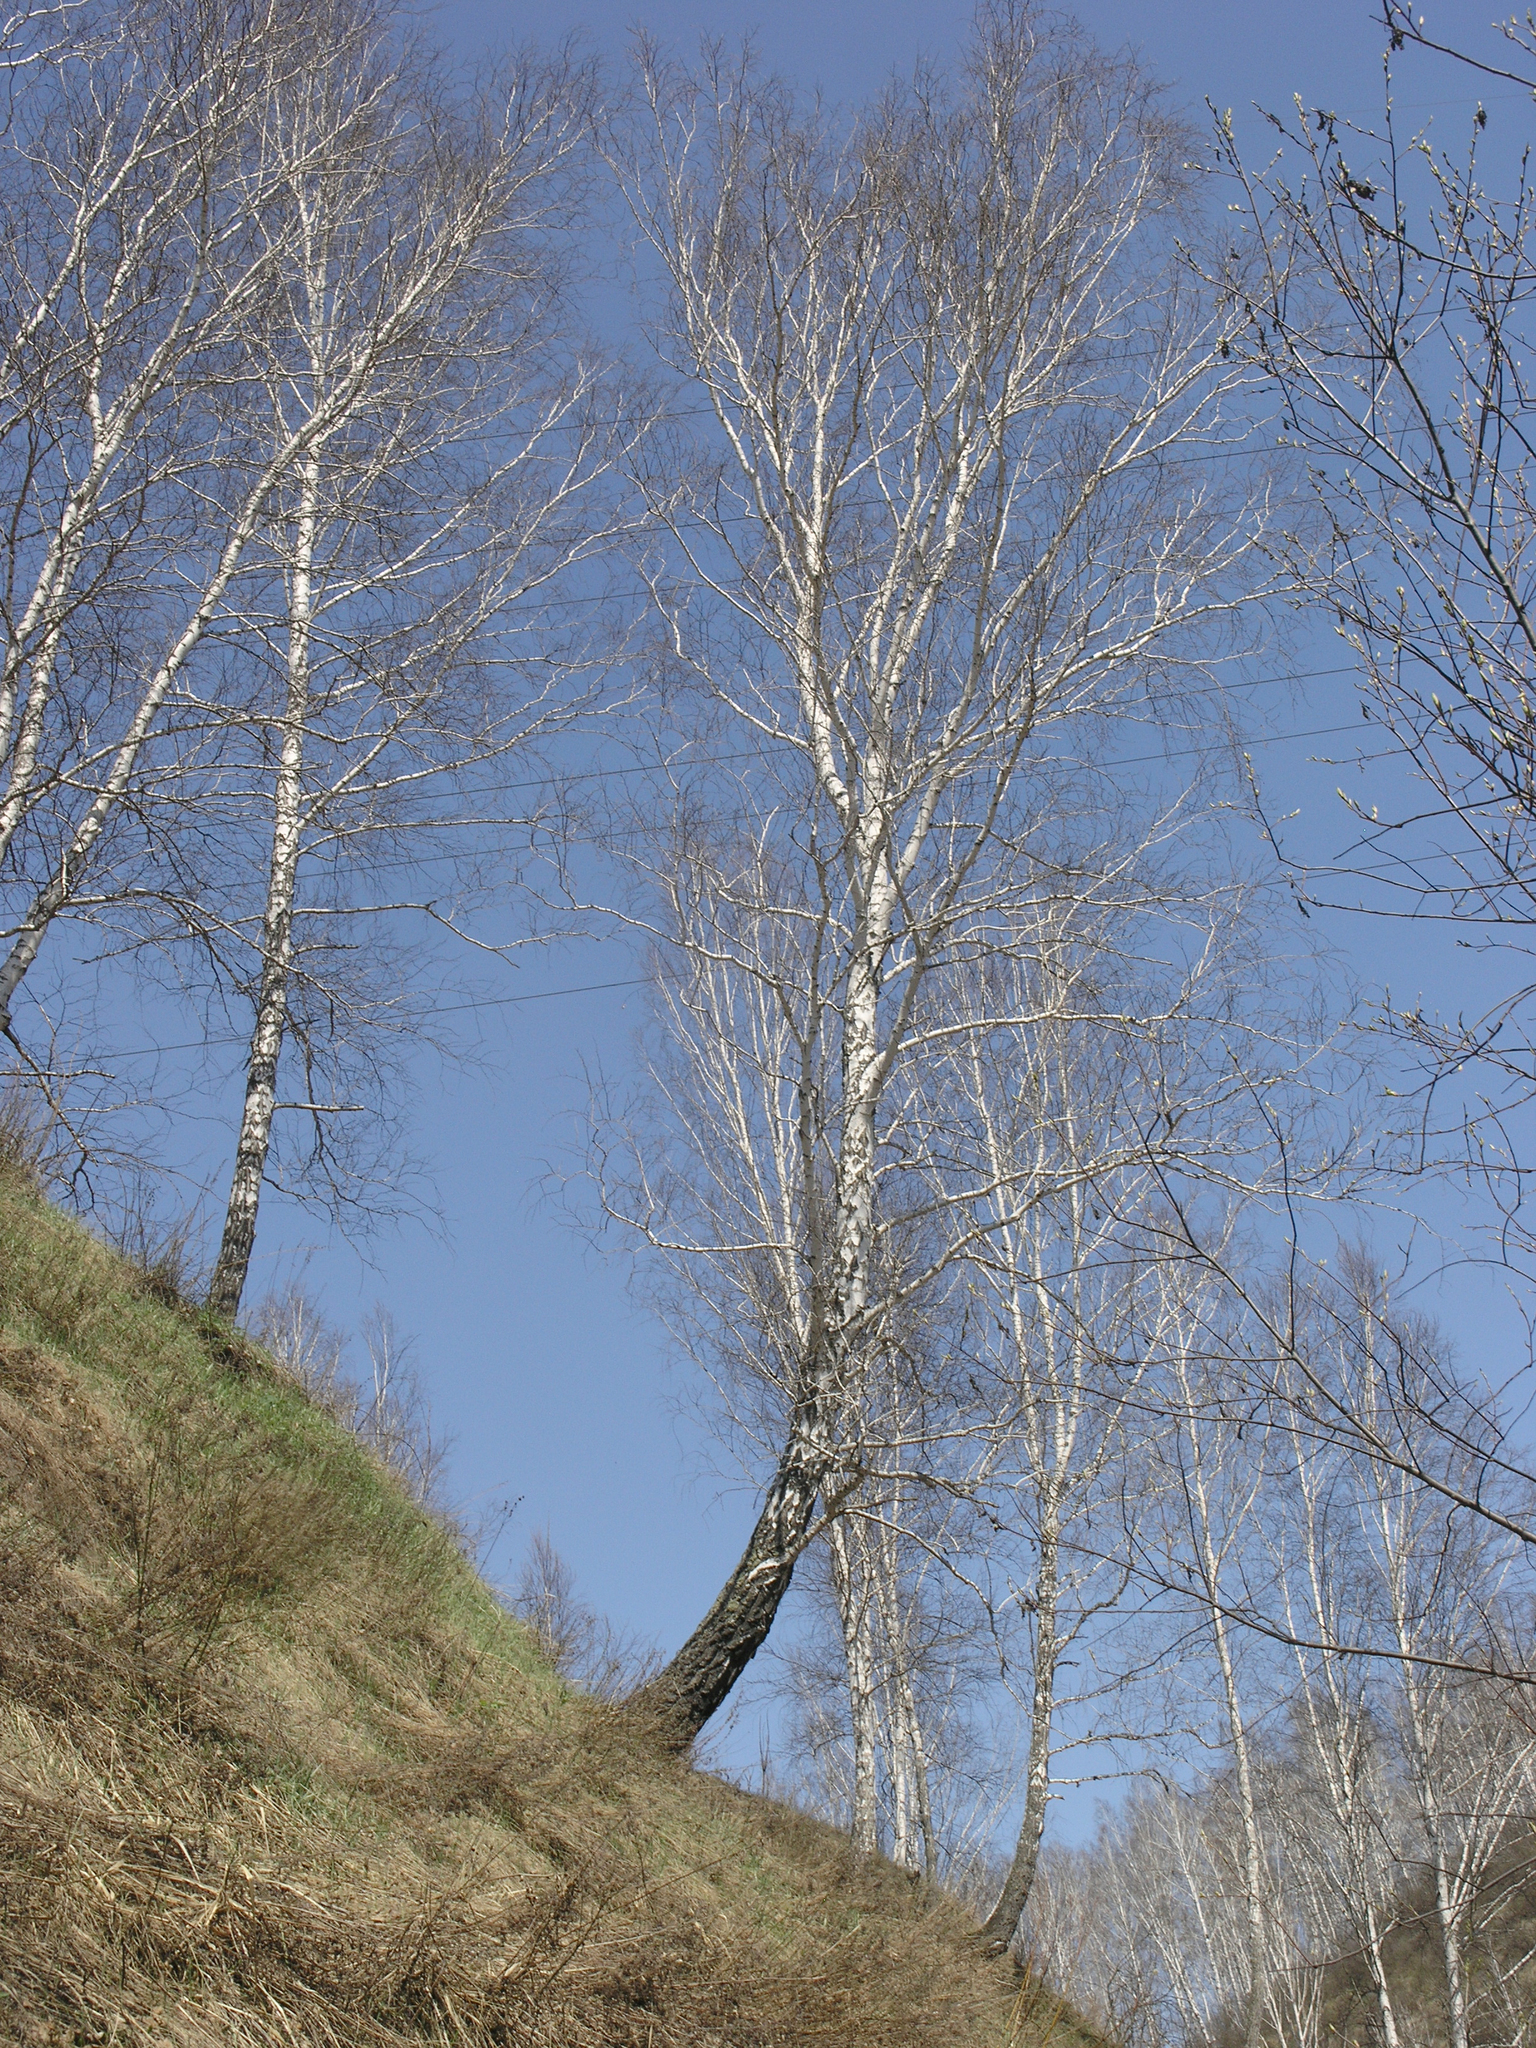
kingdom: Plantae
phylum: Tracheophyta
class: Magnoliopsida
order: Fagales
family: Betulaceae
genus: Betula
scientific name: Betula pendula
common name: Silver birch
